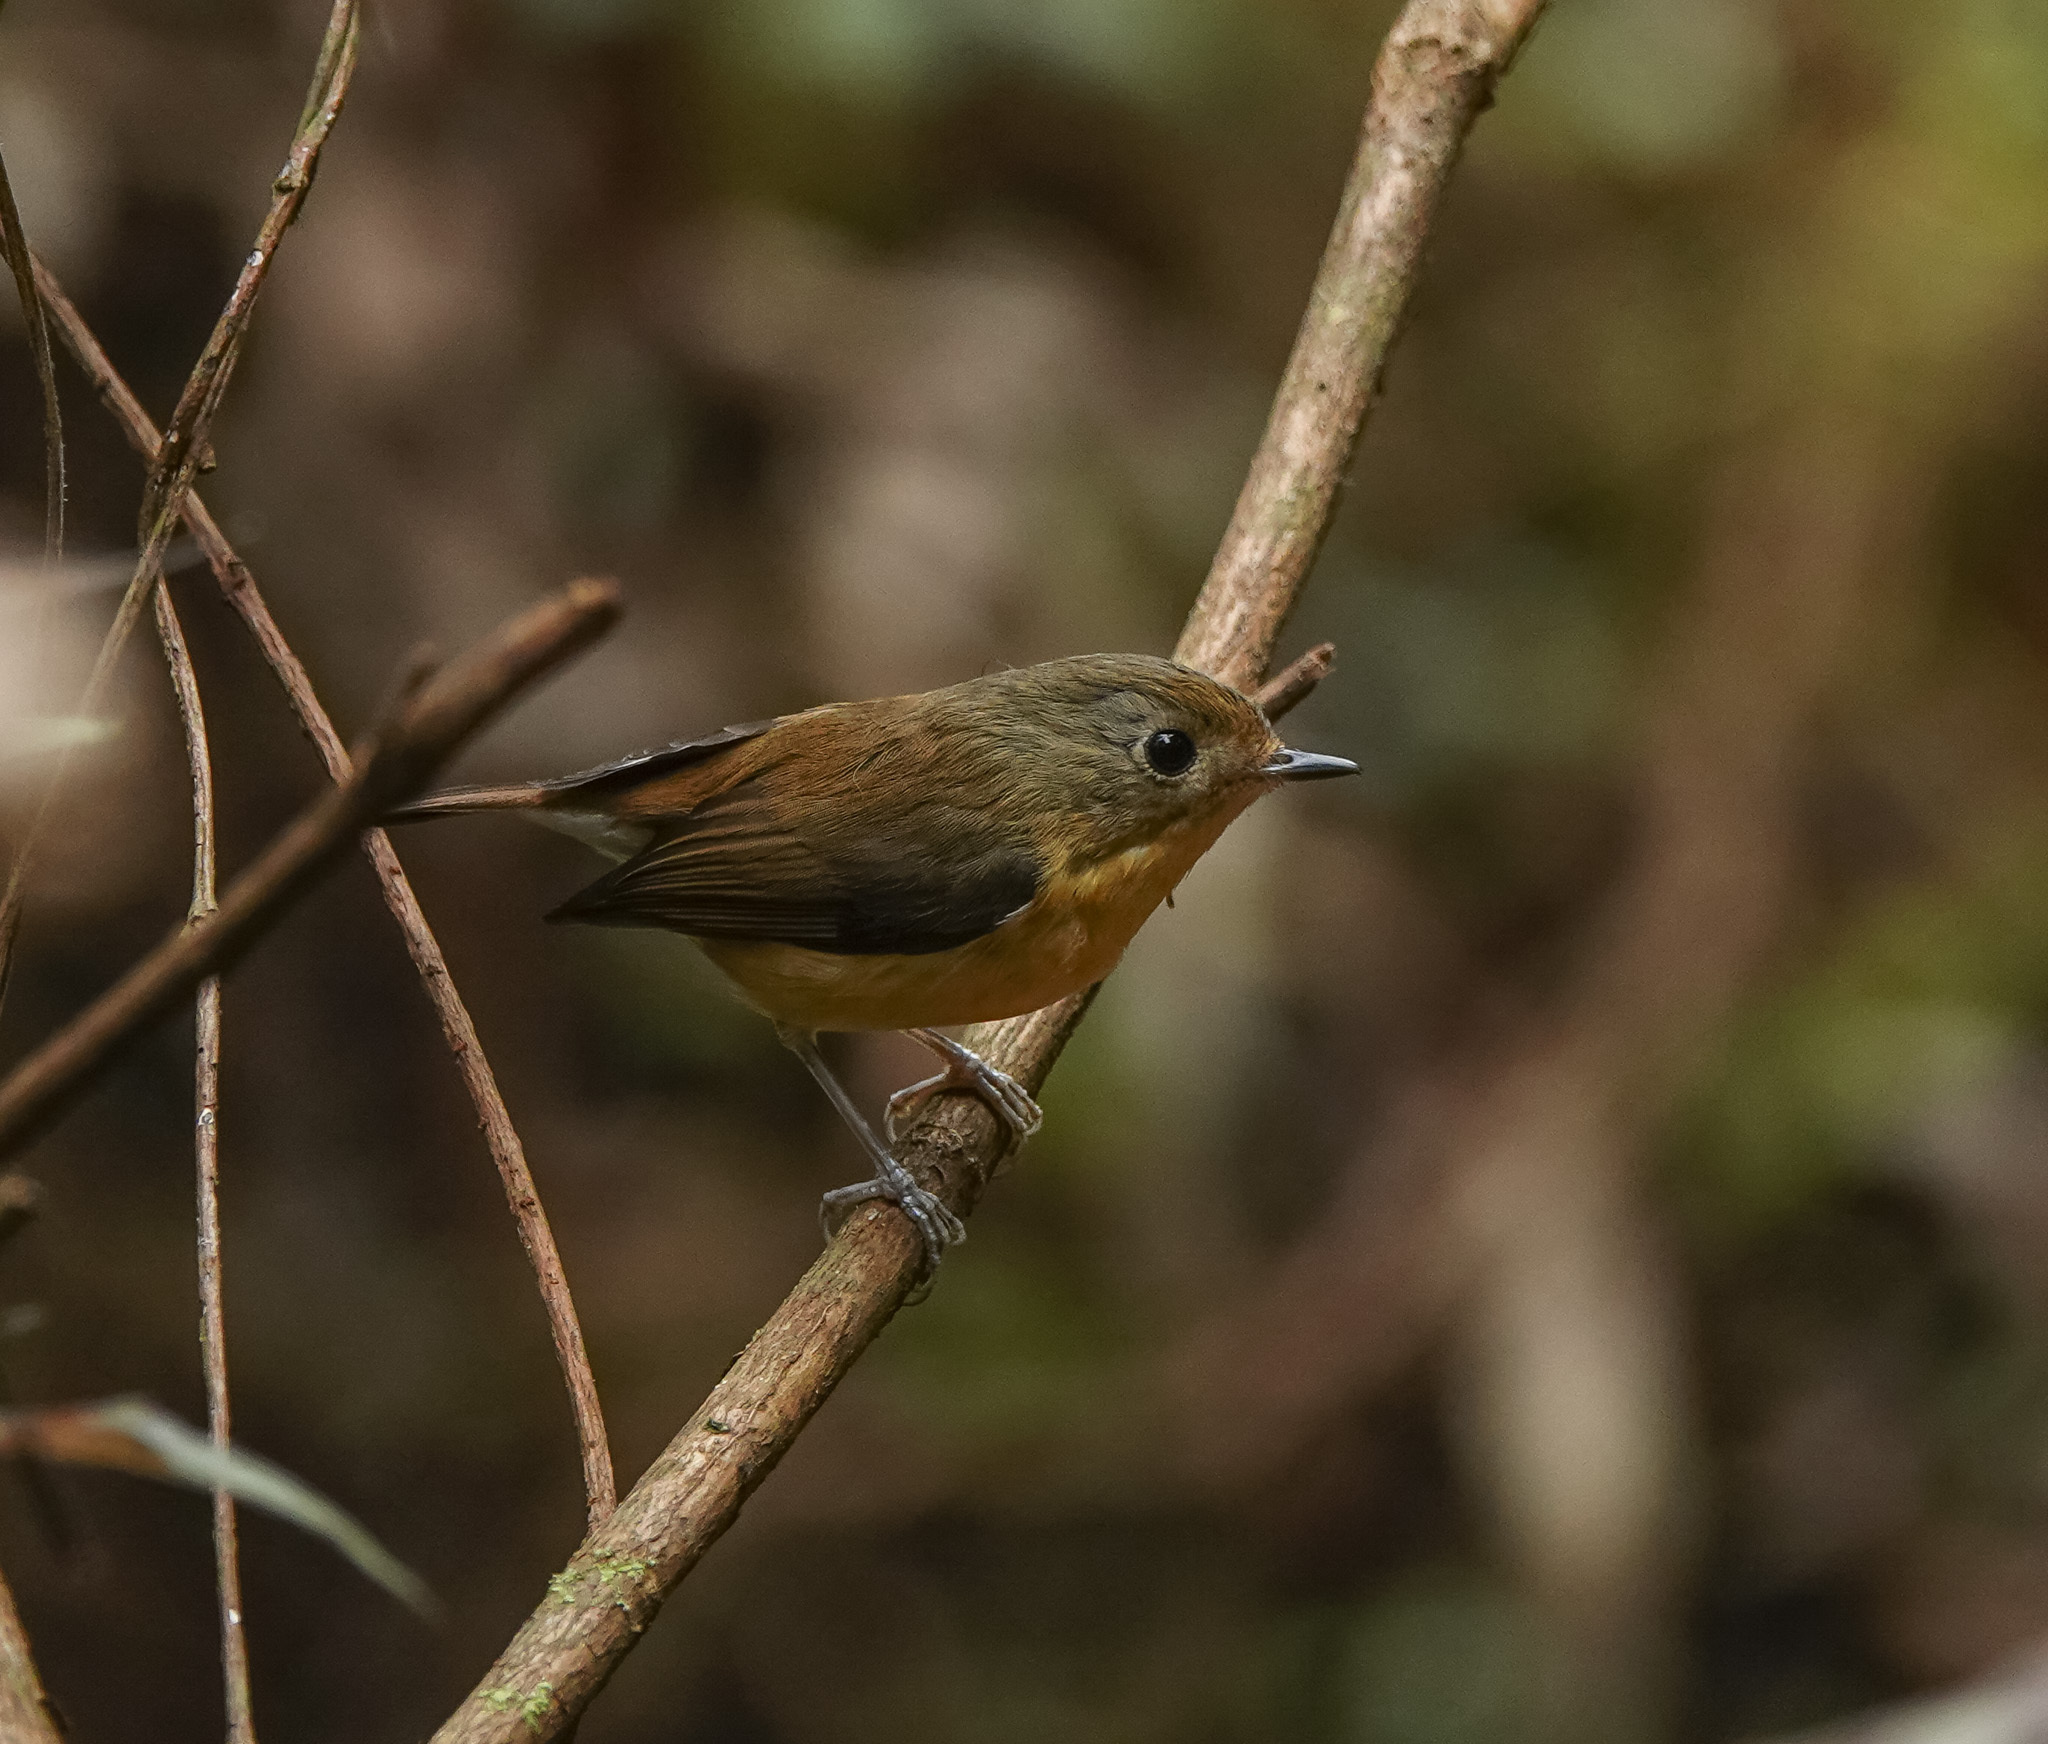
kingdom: Animalia
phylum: Chordata
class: Aves
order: Passeriformes
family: Muscicapidae
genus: Ficedula
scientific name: Ficedula hodgsoni
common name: Pygmy flycatcher
